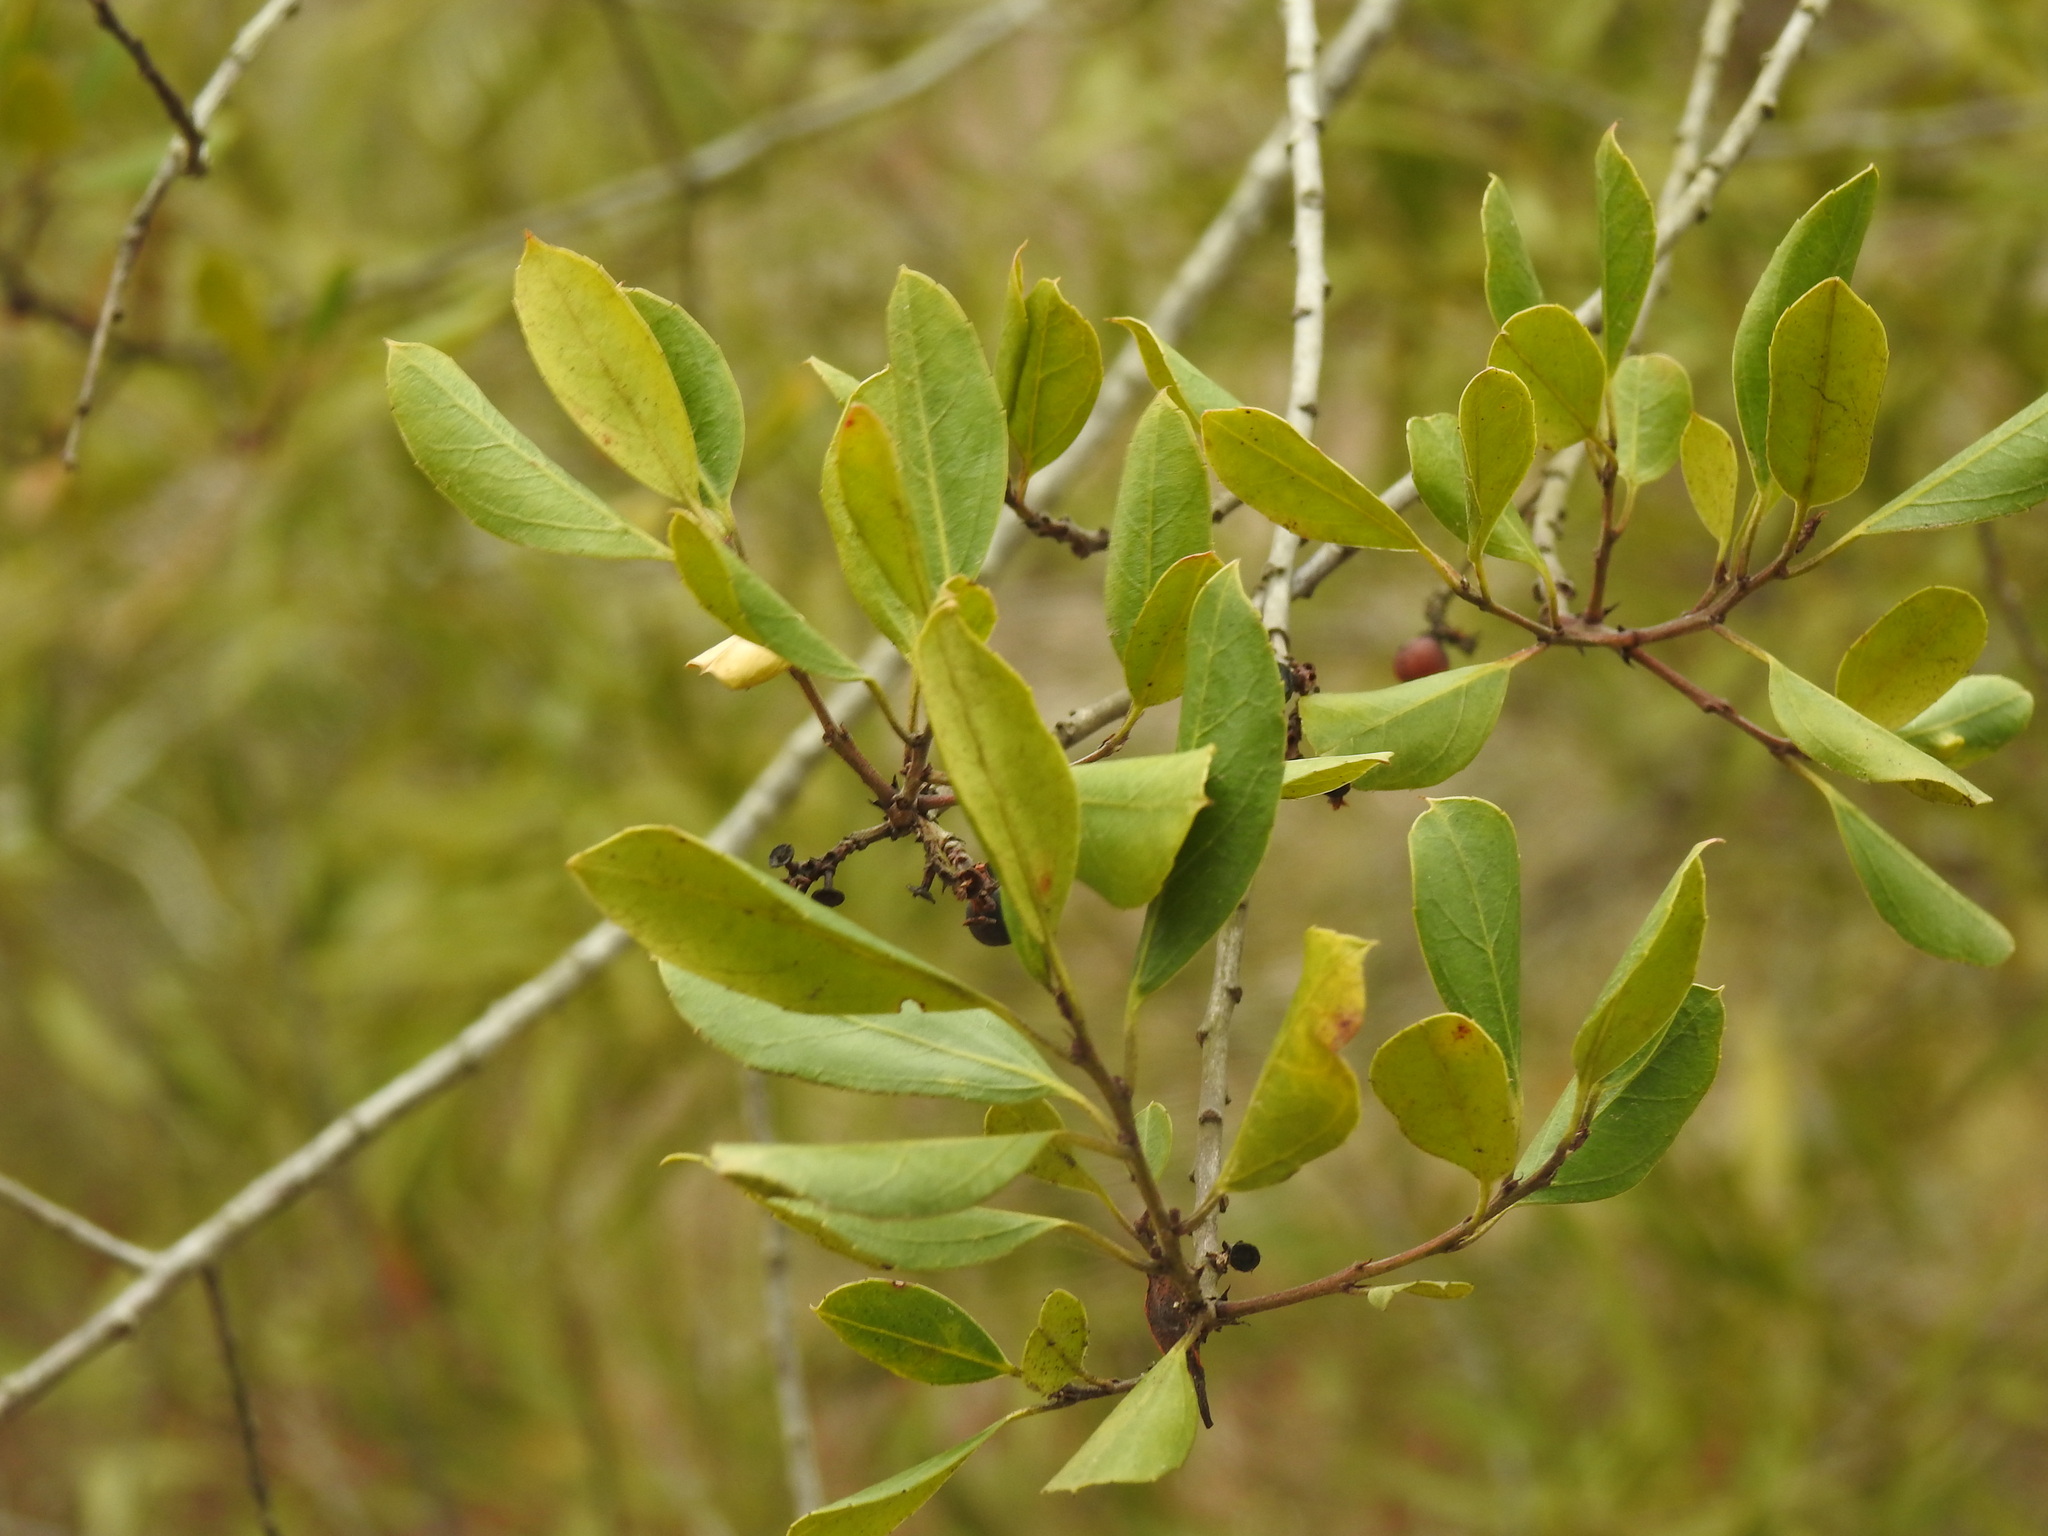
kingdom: Plantae
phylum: Tracheophyta
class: Magnoliopsida
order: Rosales
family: Rhamnaceae
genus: Rhamnus
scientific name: Rhamnus alaternus
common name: Mediterranean buckthorn
